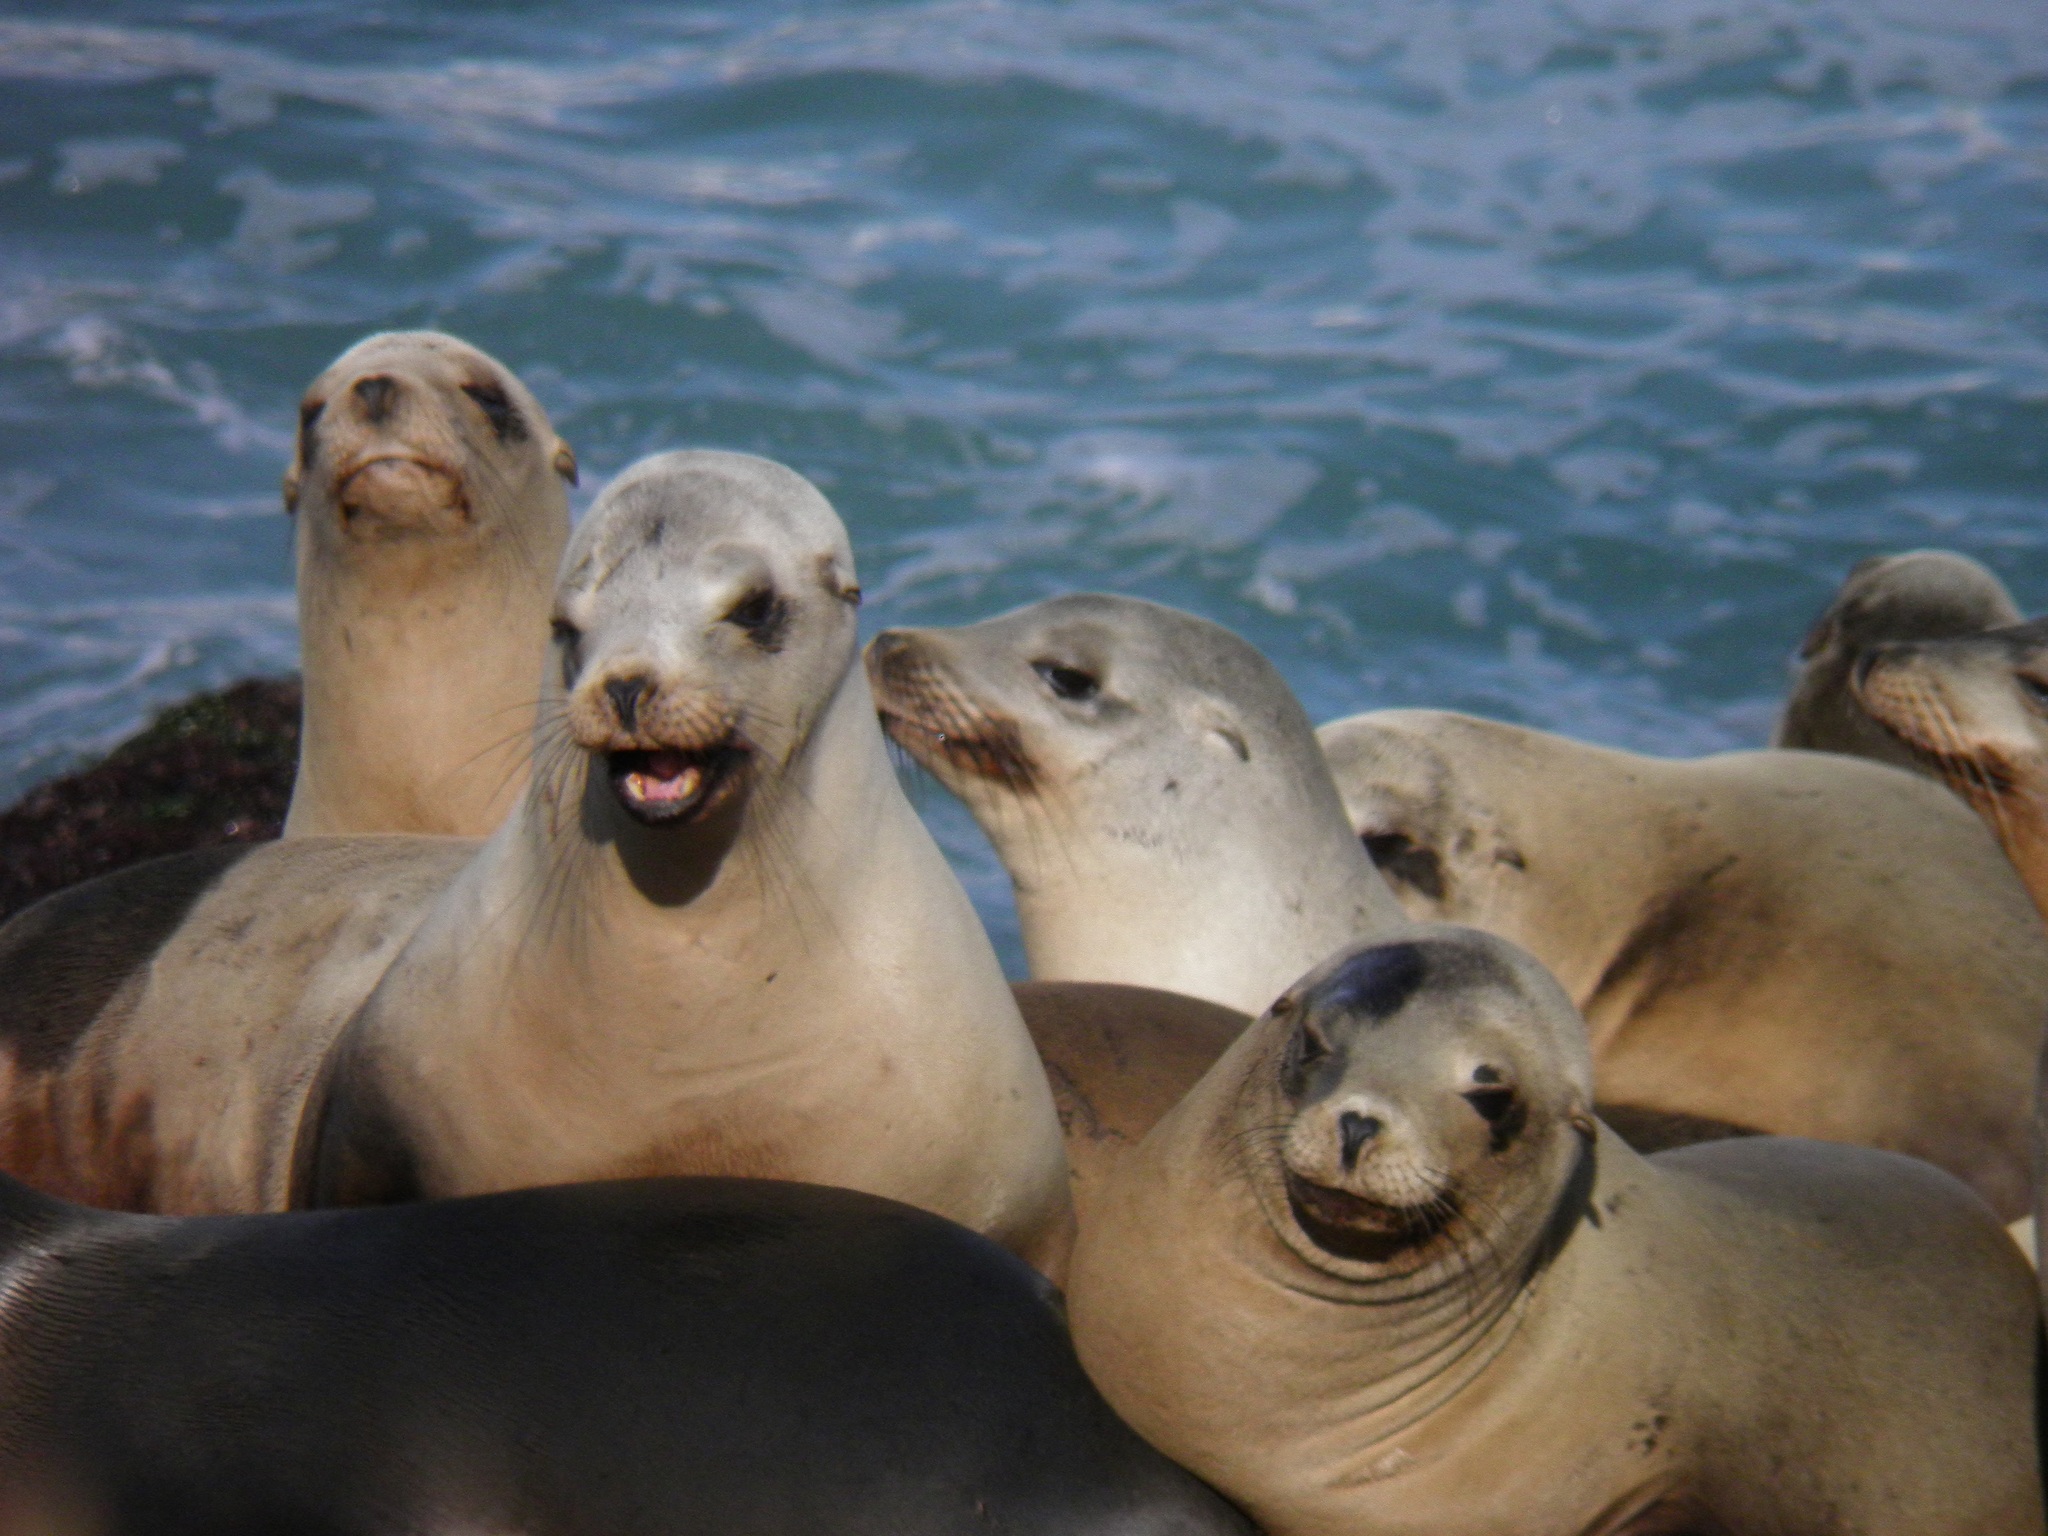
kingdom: Animalia
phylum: Chordata
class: Mammalia
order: Carnivora
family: Otariidae
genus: Zalophus
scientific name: Zalophus californianus
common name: California sea lion
